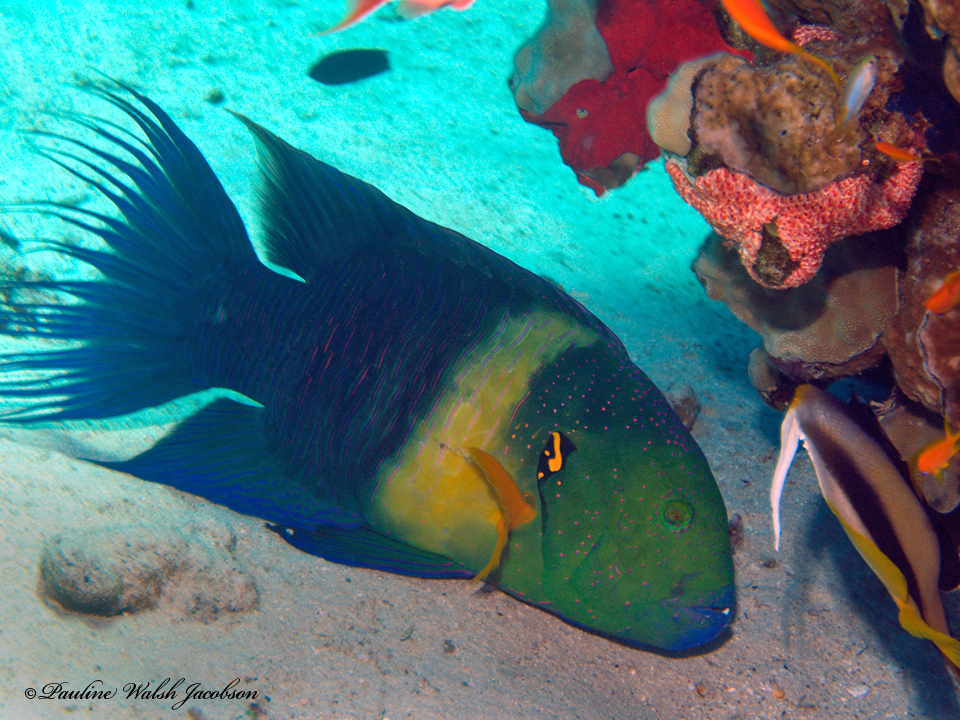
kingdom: Animalia
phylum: Chordata
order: Perciformes
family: Labridae
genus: Cheilinus
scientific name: Cheilinus lunulatus
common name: Broomtail wrasse
